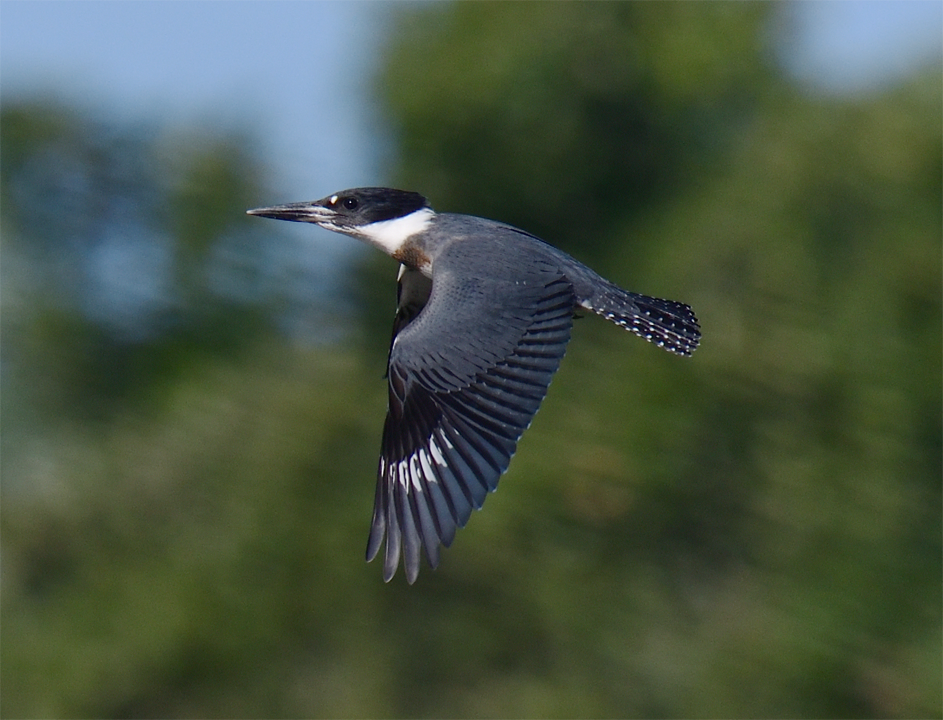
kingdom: Animalia
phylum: Chordata
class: Aves
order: Coraciiformes
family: Alcedinidae
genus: Megaceryle
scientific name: Megaceryle alcyon
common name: Belted kingfisher
